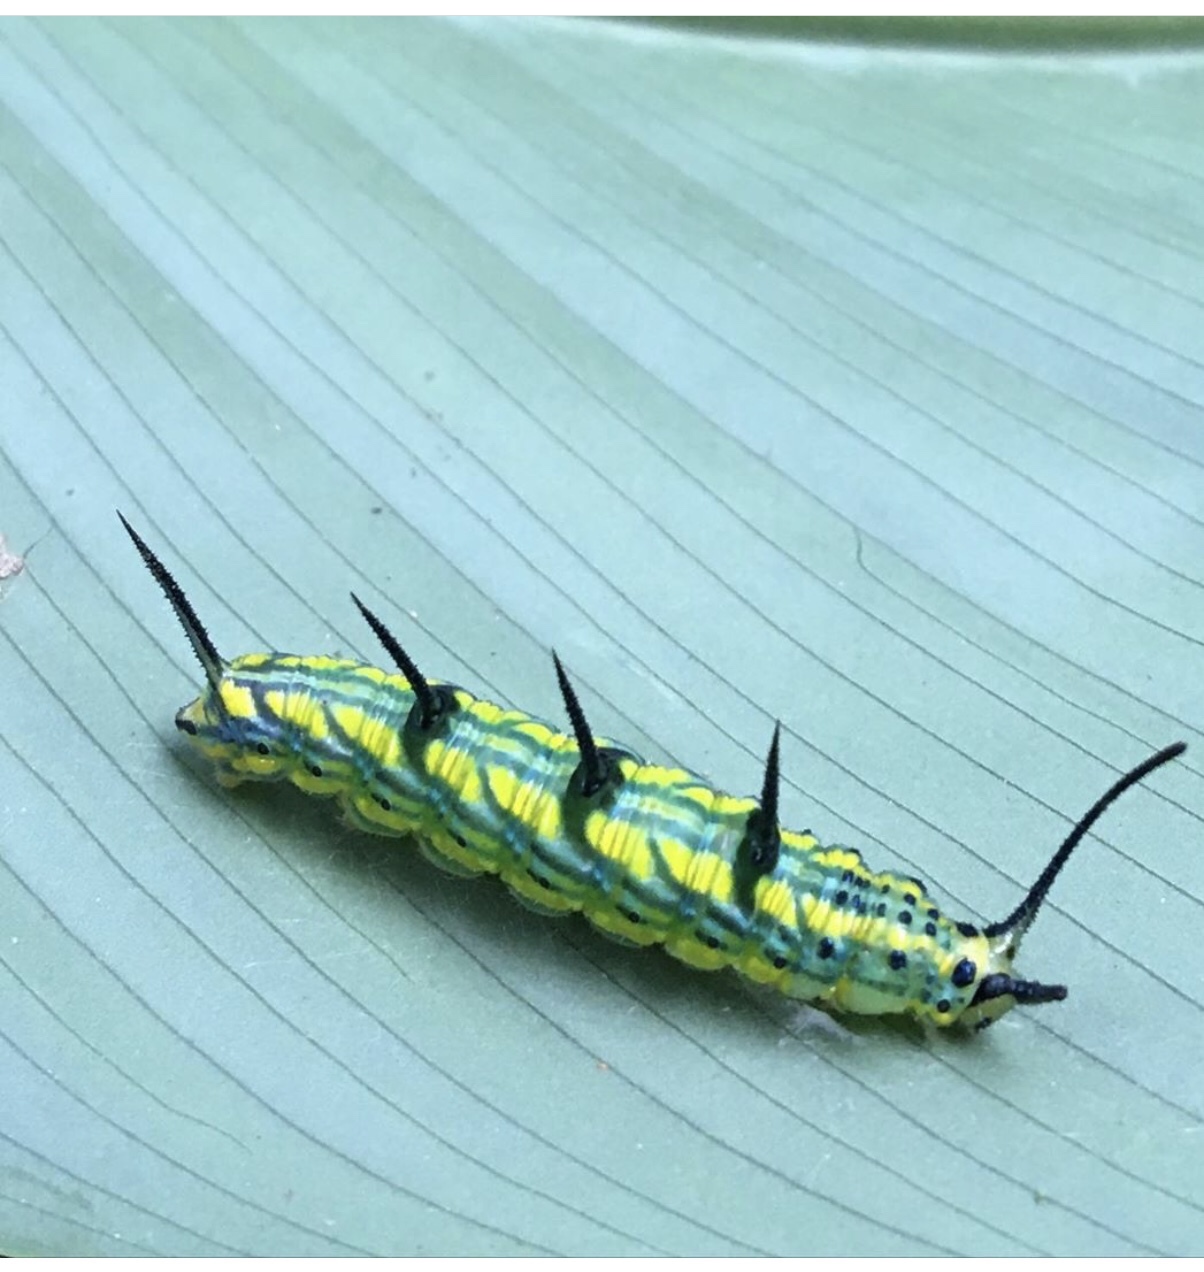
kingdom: Animalia
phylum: Arthropoda
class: Insecta
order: Lepidoptera
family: Nymphalidae
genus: Marpesia
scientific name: Marpesia chiron
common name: Many-banded daggerwing
